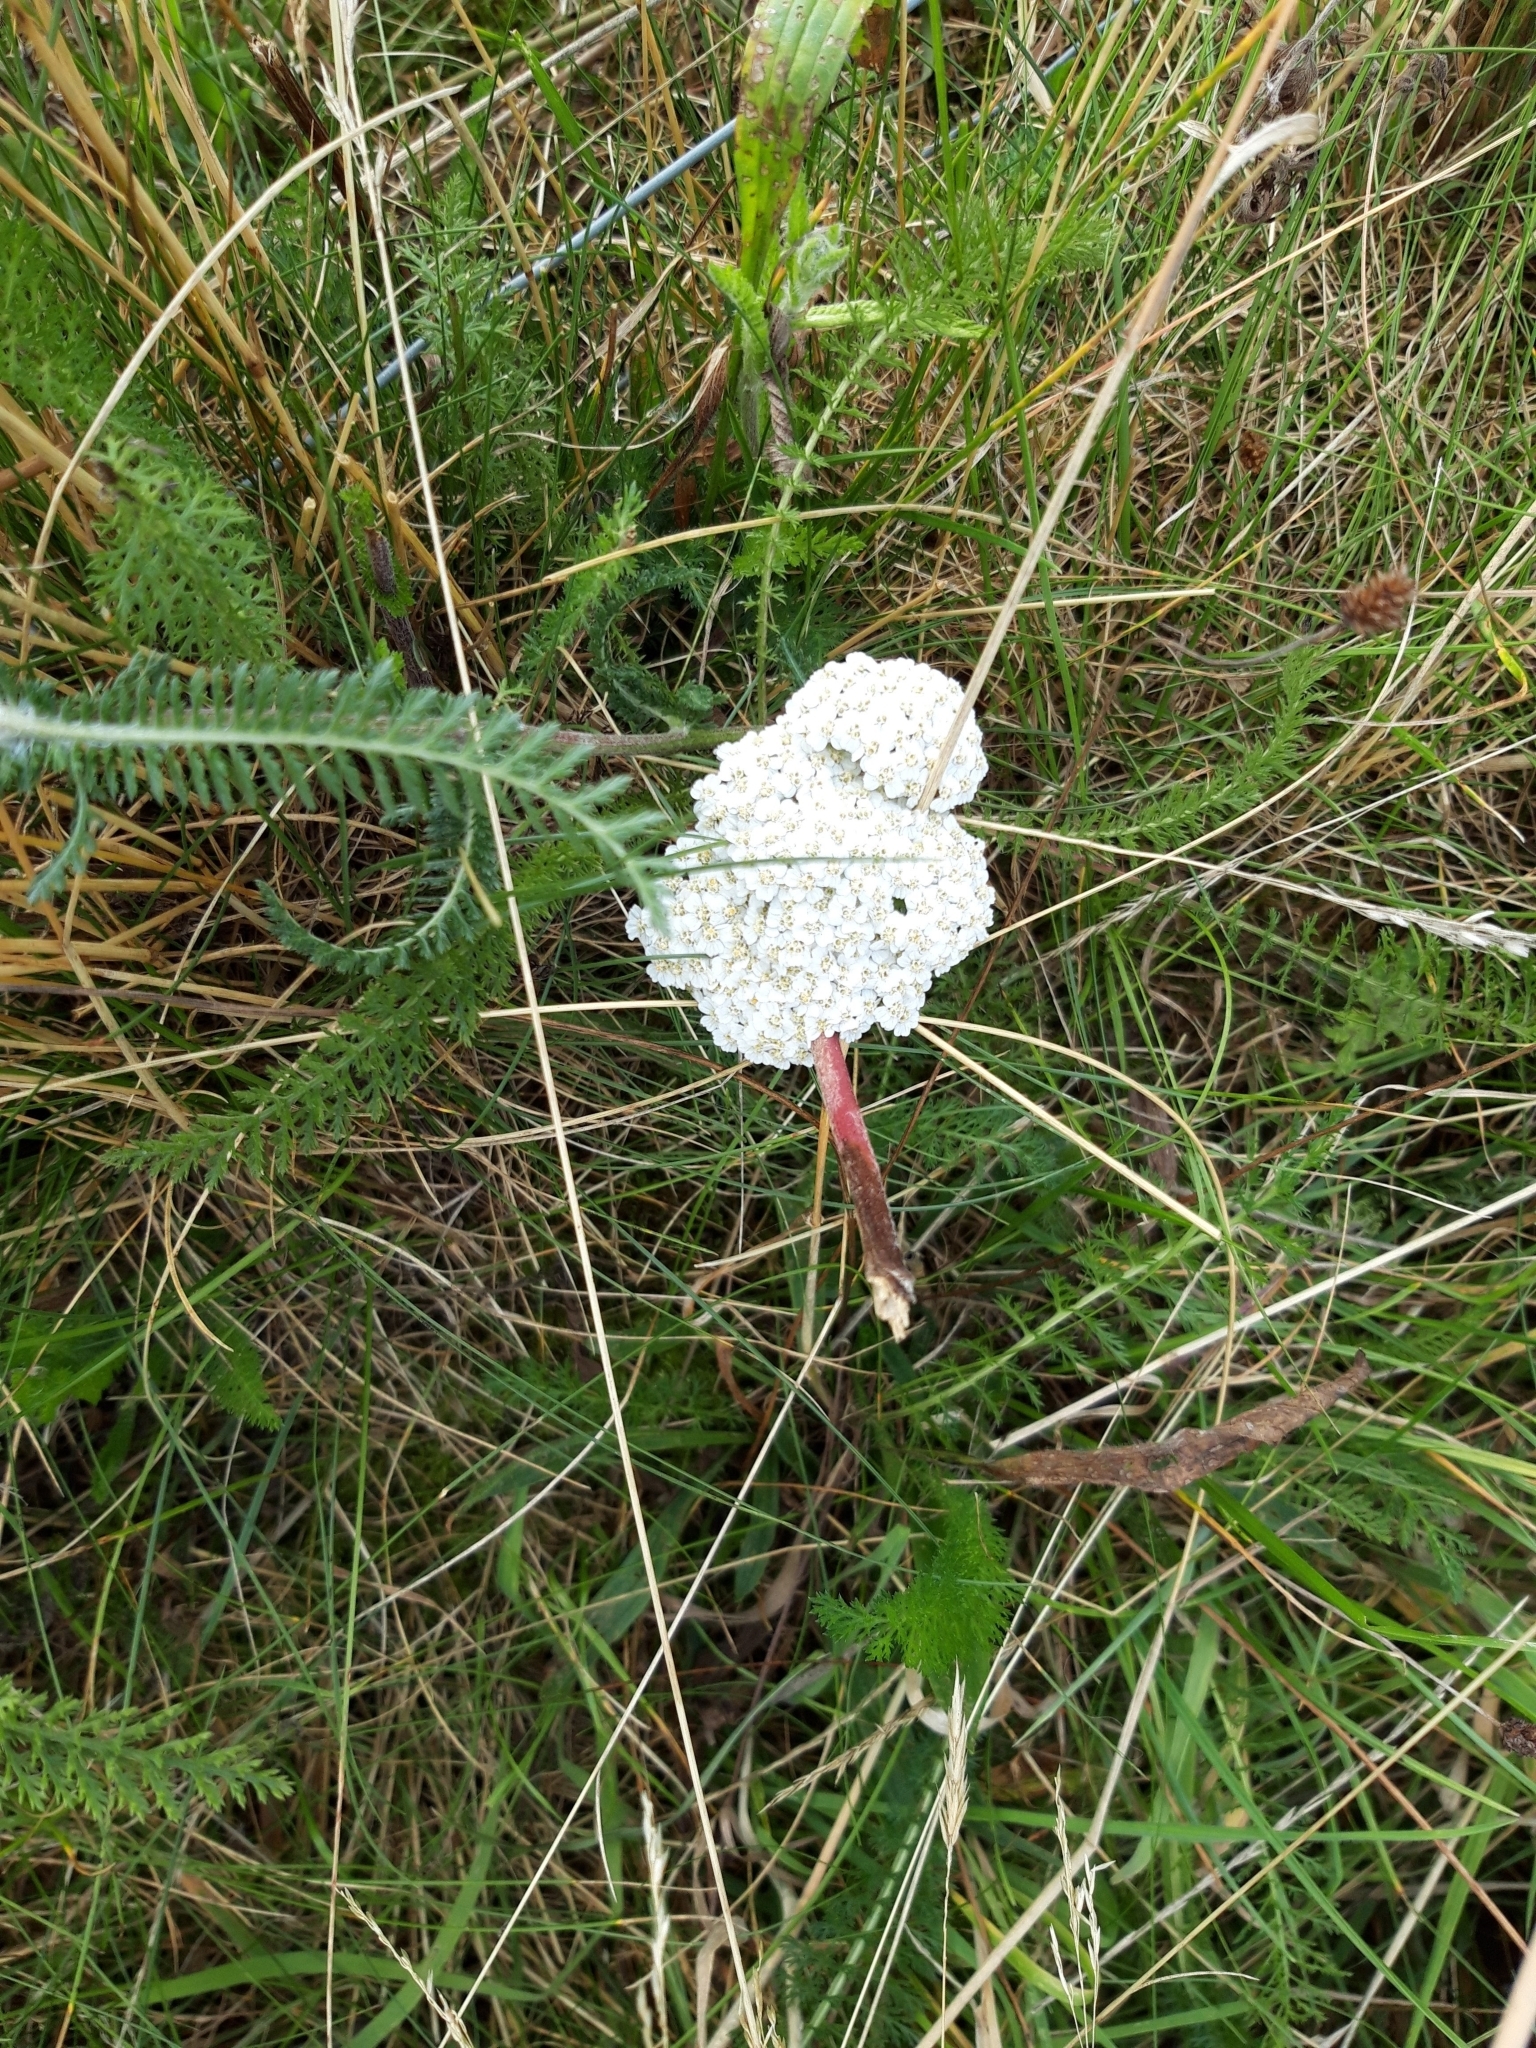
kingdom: Plantae
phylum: Tracheophyta
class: Magnoliopsida
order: Asterales
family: Asteraceae
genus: Achillea
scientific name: Achillea millefolium
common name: Yarrow
